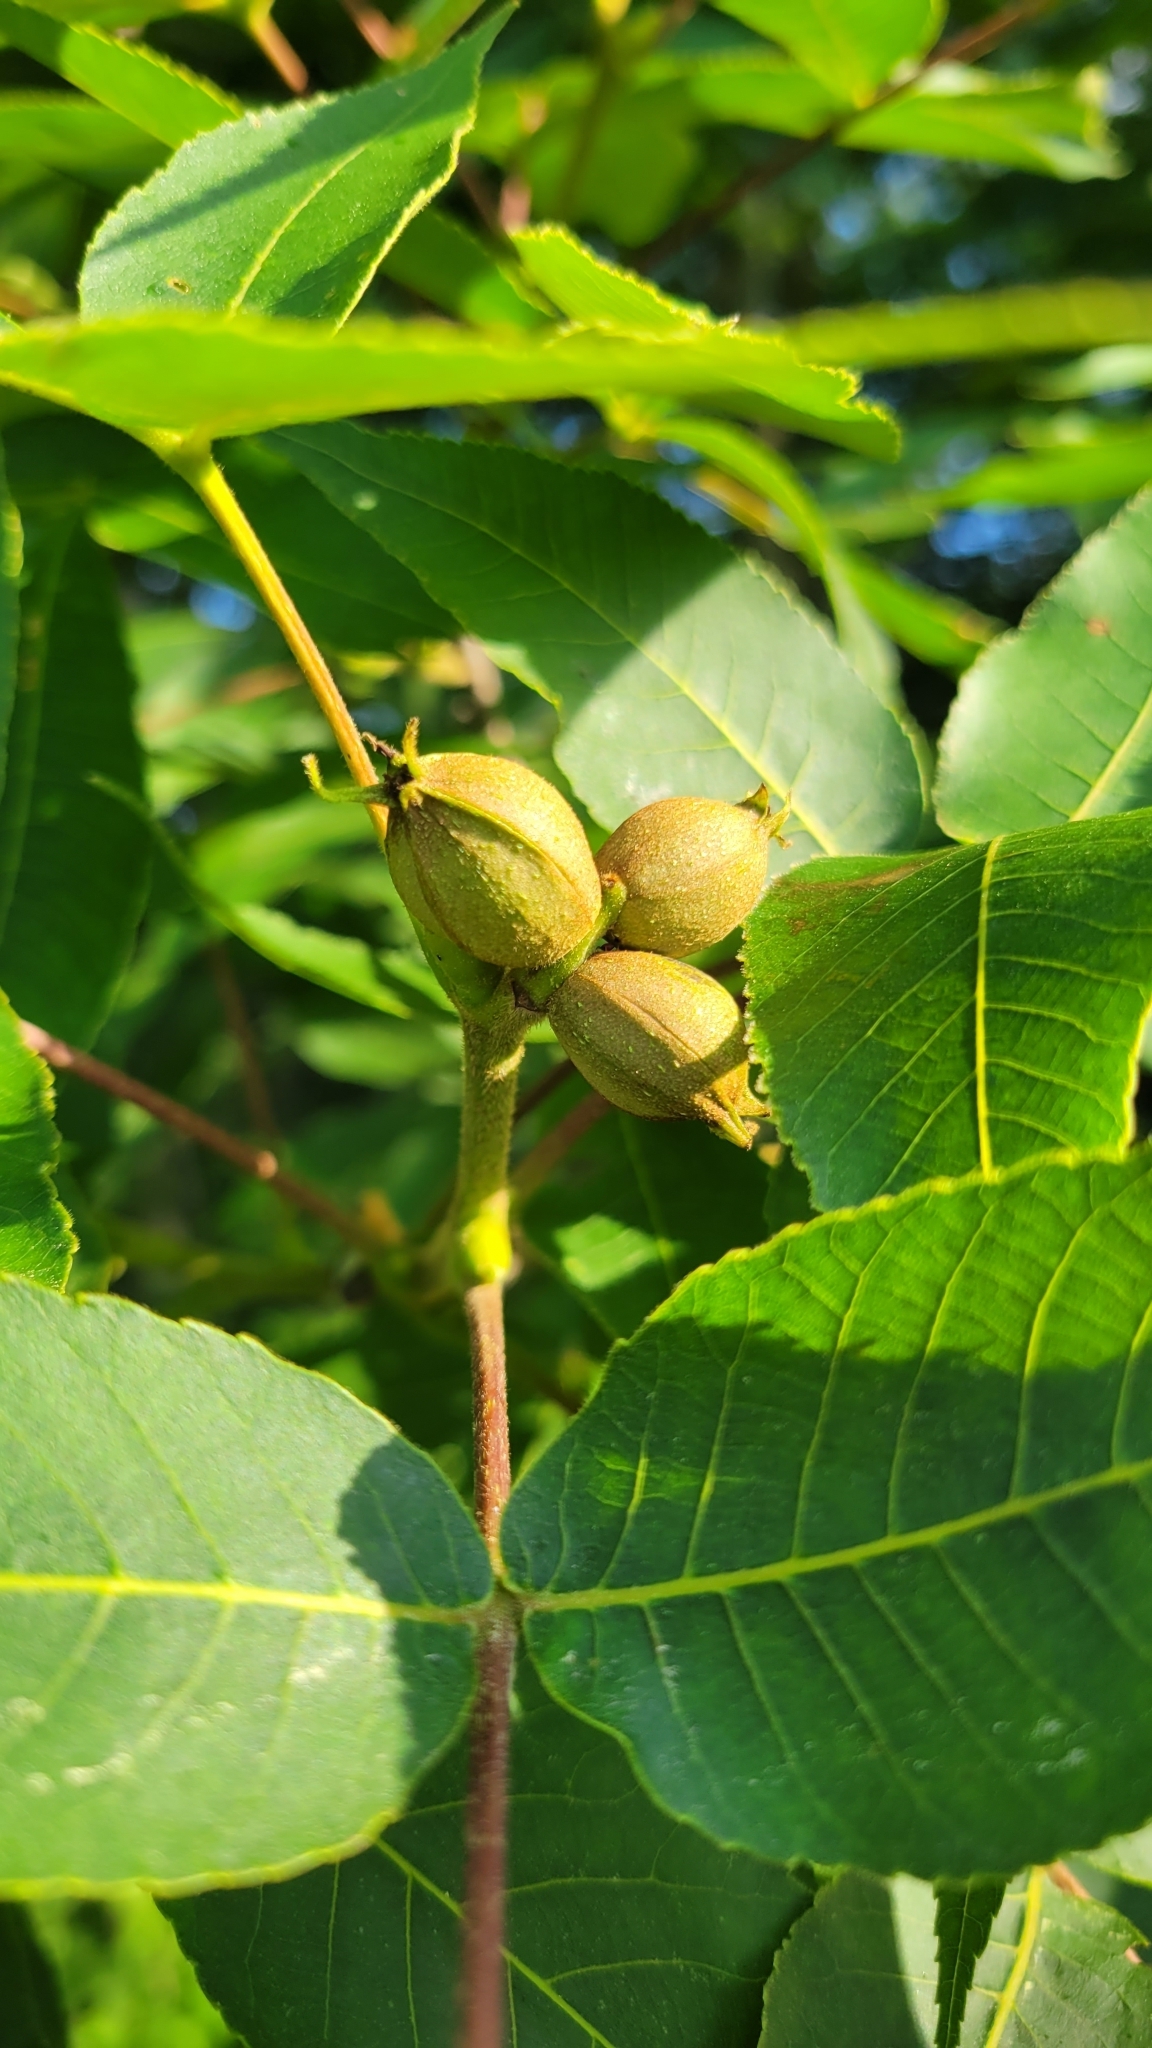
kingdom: Plantae
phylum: Tracheophyta
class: Magnoliopsida
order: Fagales
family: Juglandaceae
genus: Carya
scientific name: Carya glabra
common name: Pignut hickory
